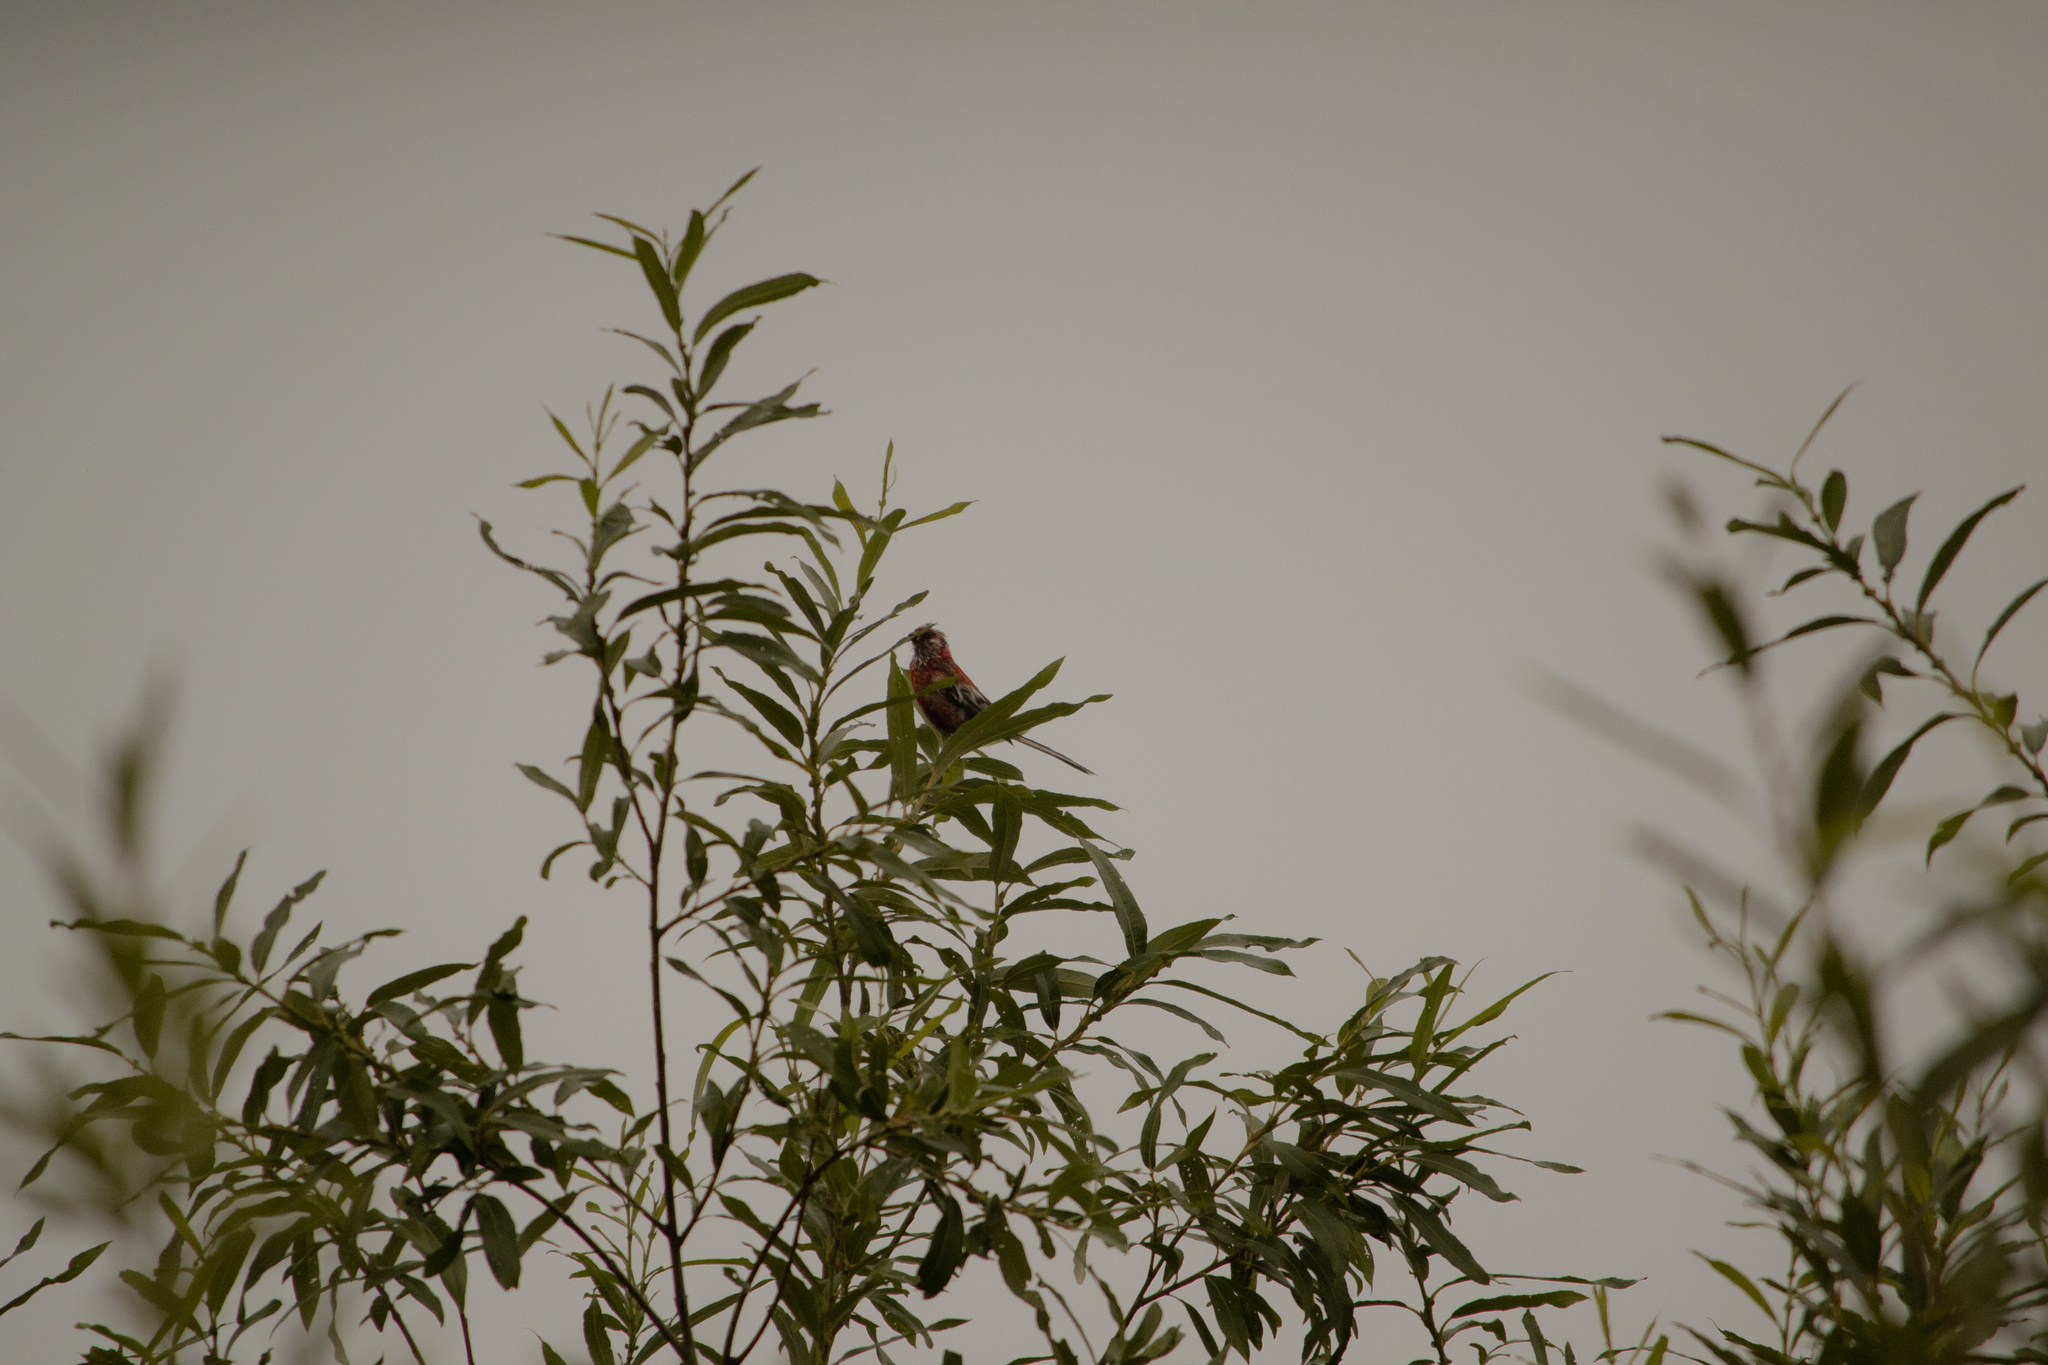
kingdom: Animalia
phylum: Chordata
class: Aves
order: Passeriformes
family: Fringillidae
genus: Carpodacus
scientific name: Carpodacus sibiricus
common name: Long-tailed rosefinch
